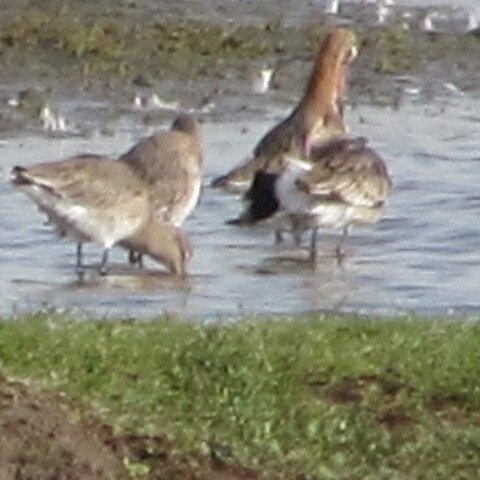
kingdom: Animalia
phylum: Chordata
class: Aves
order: Charadriiformes
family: Scolopacidae
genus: Limosa
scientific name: Limosa limosa
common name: Black-tailed godwit
